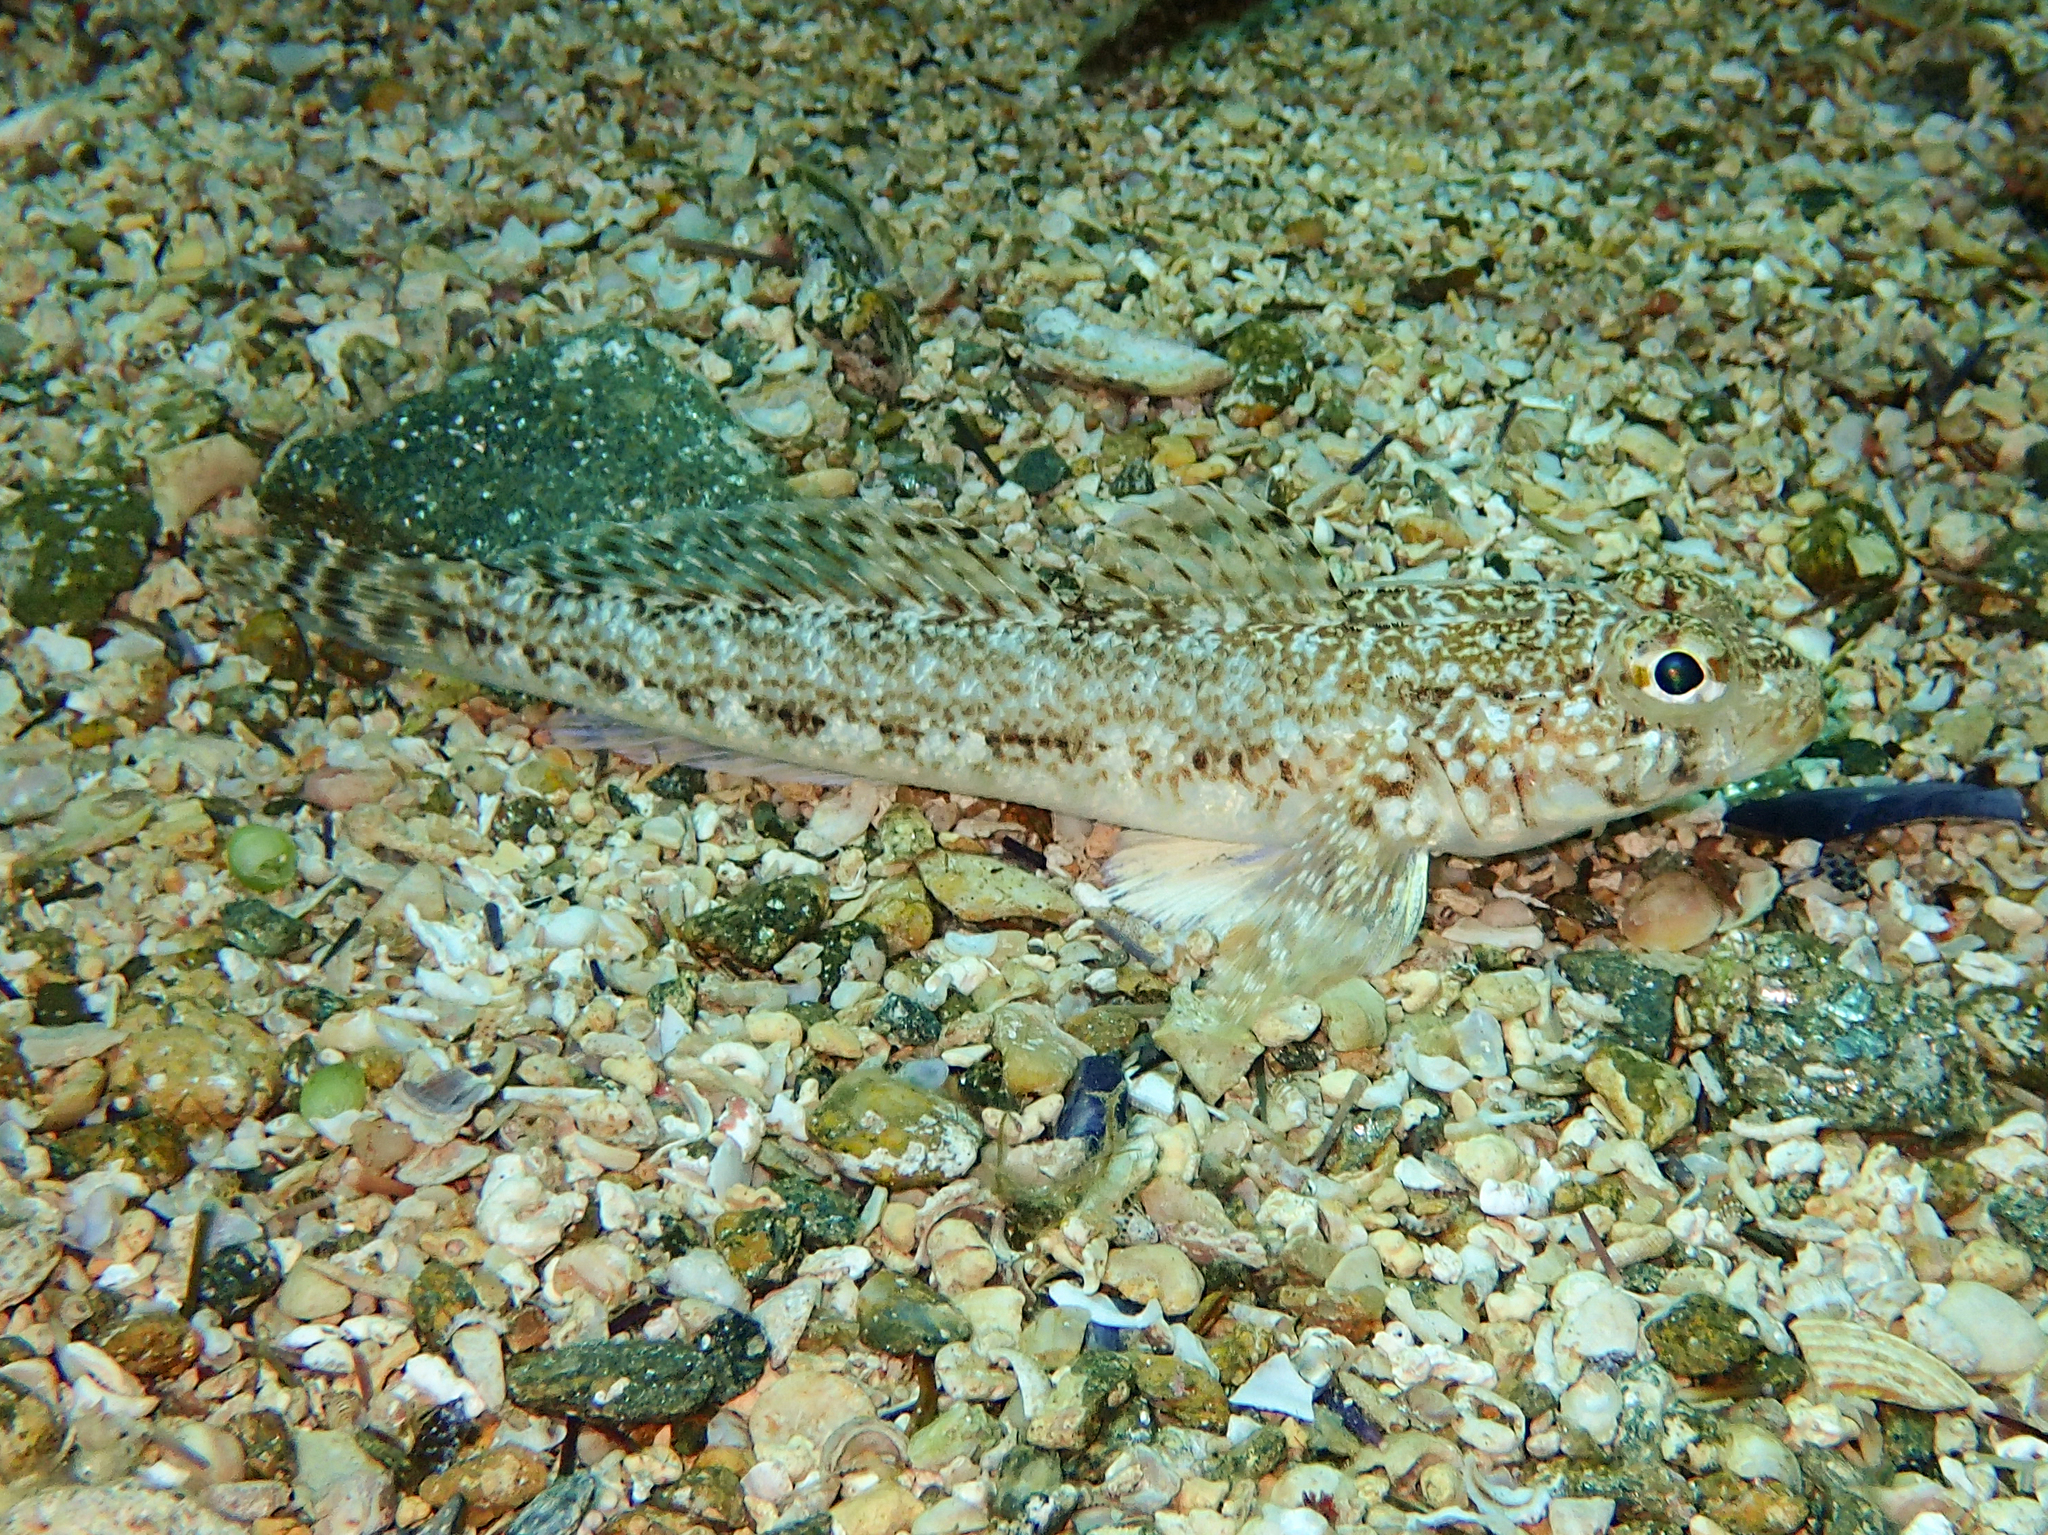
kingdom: Animalia
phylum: Chordata
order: Perciformes
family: Gobiidae
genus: Gobius
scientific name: Gobius geniporus
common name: Slender goby
